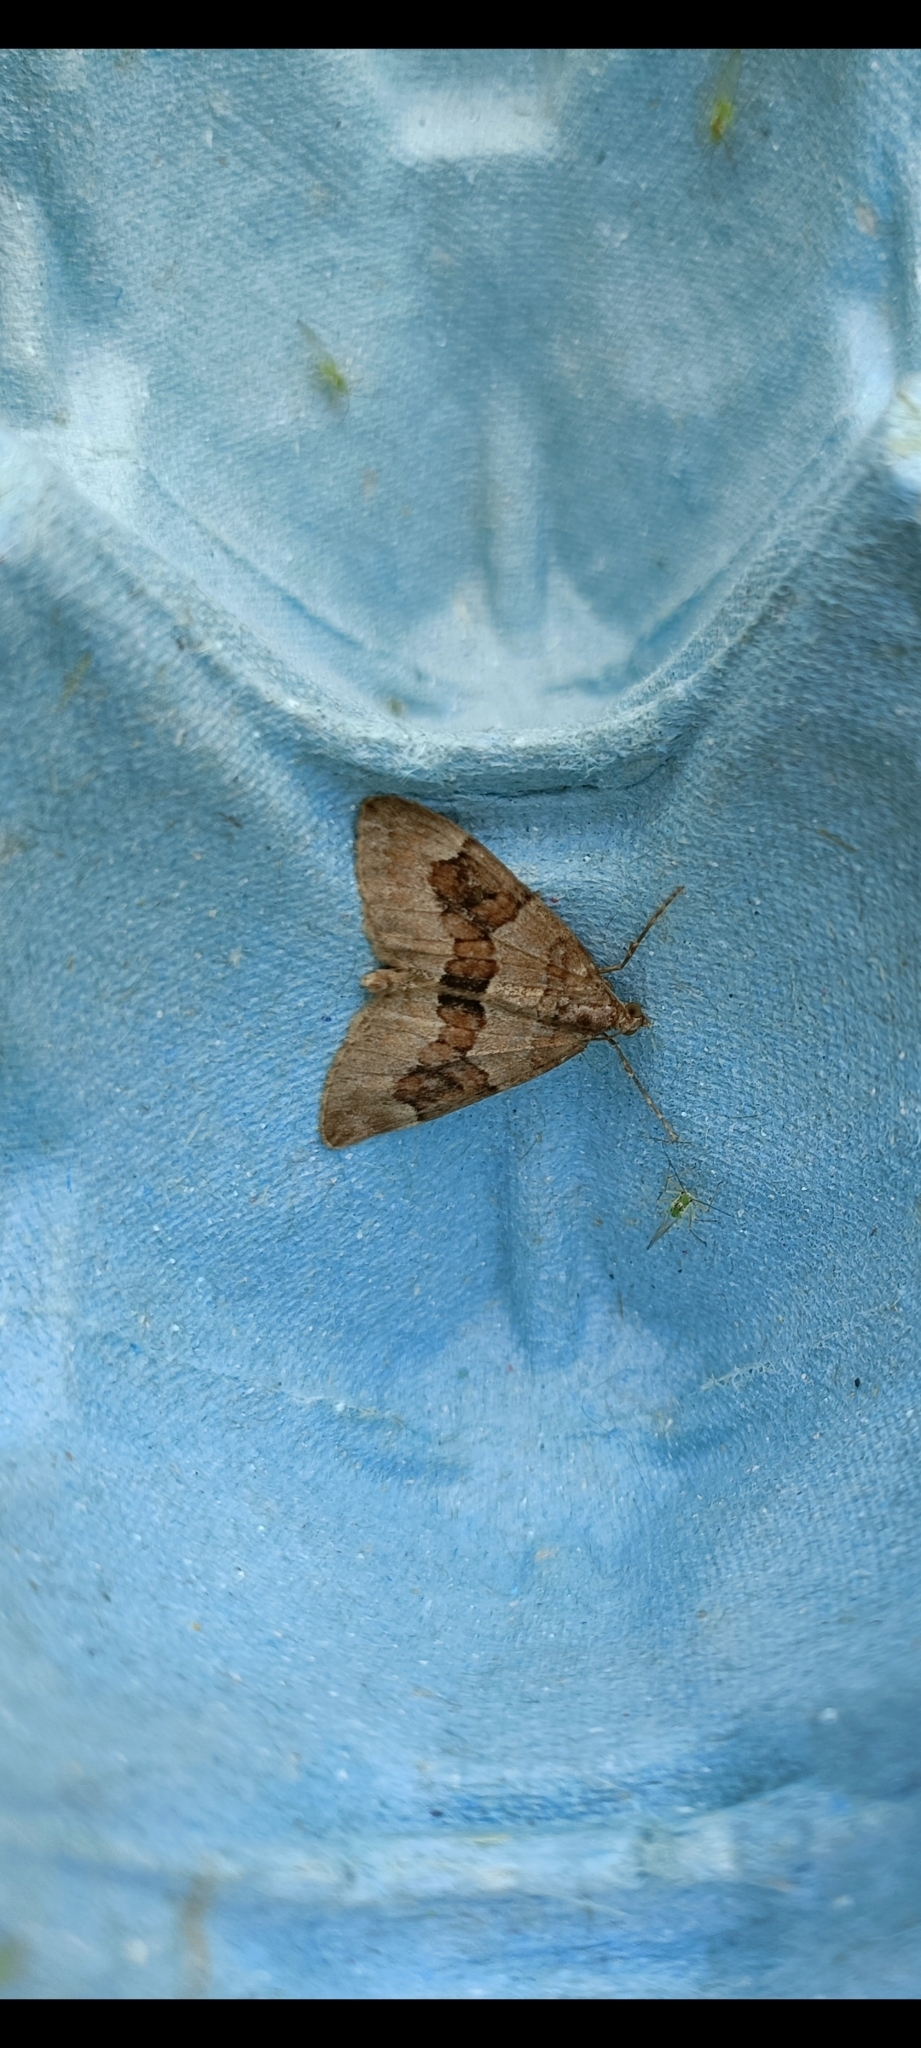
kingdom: Animalia
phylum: Arthropoda
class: Insecta
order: Lepidoptera
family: Geometridae
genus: Thera
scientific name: Thera obeliscata
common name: Grey pine carpet
